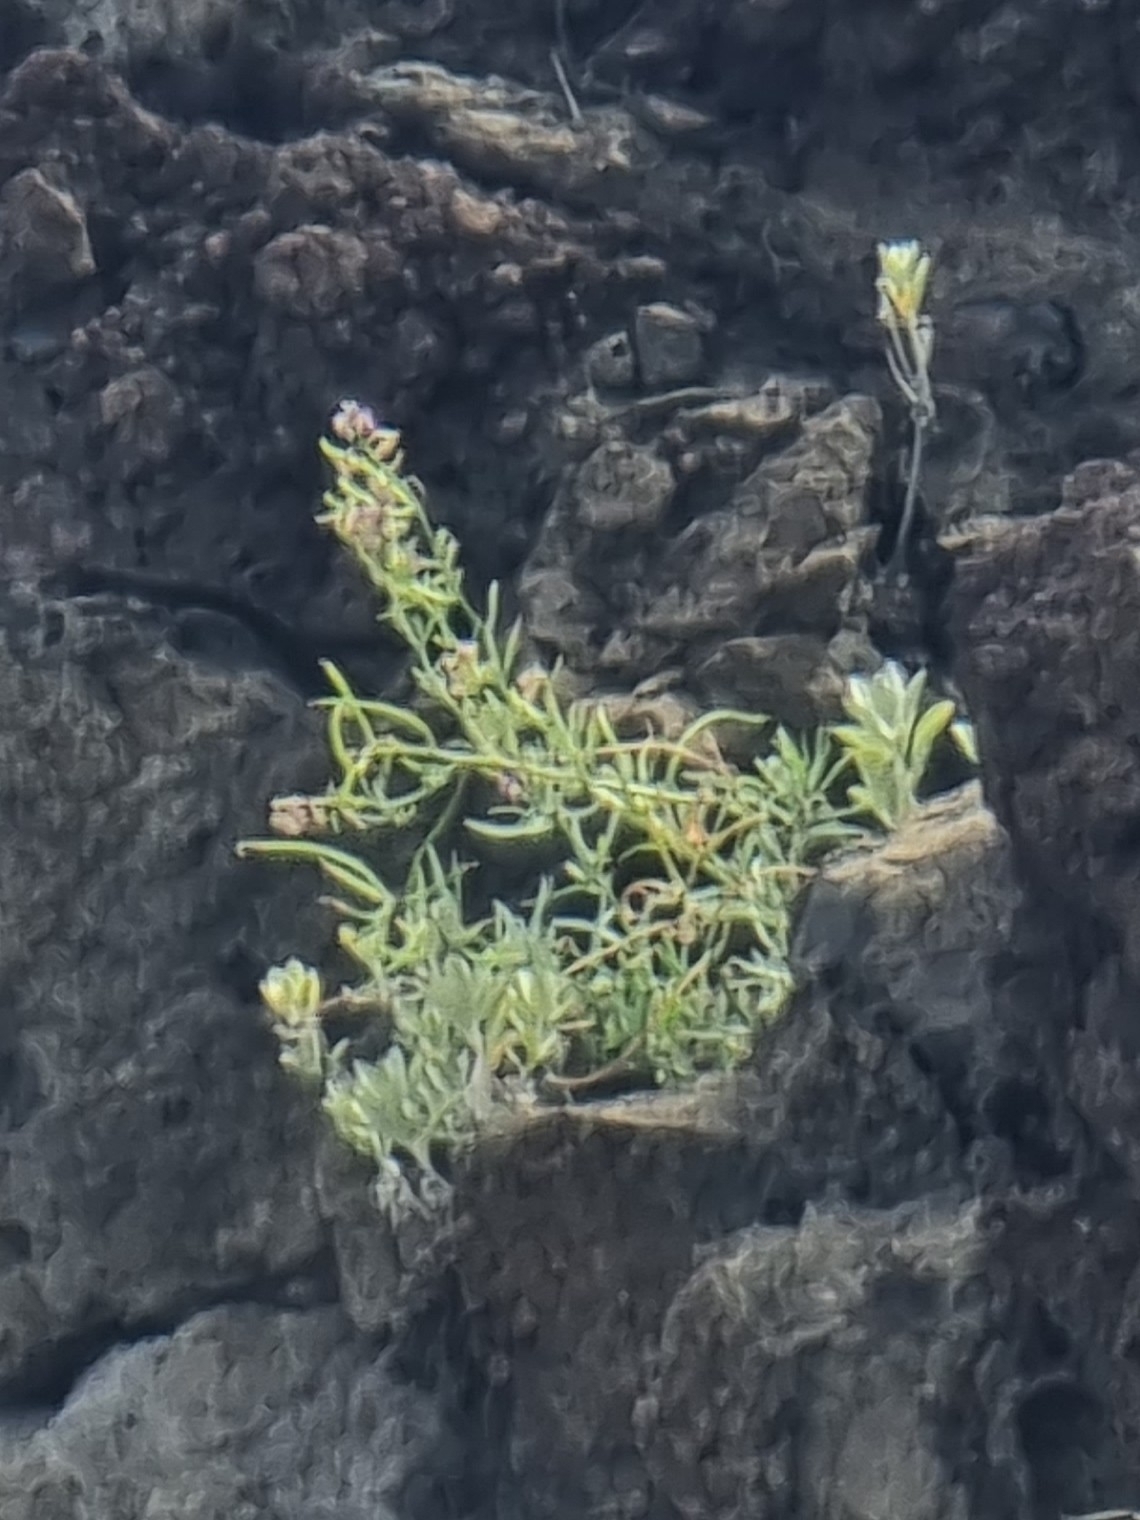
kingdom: Plantae
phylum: Tracheophyta
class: Magnoliopsida
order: Brassicales
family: Brassicaceae
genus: Matthiola
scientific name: Matthiola maderensis
